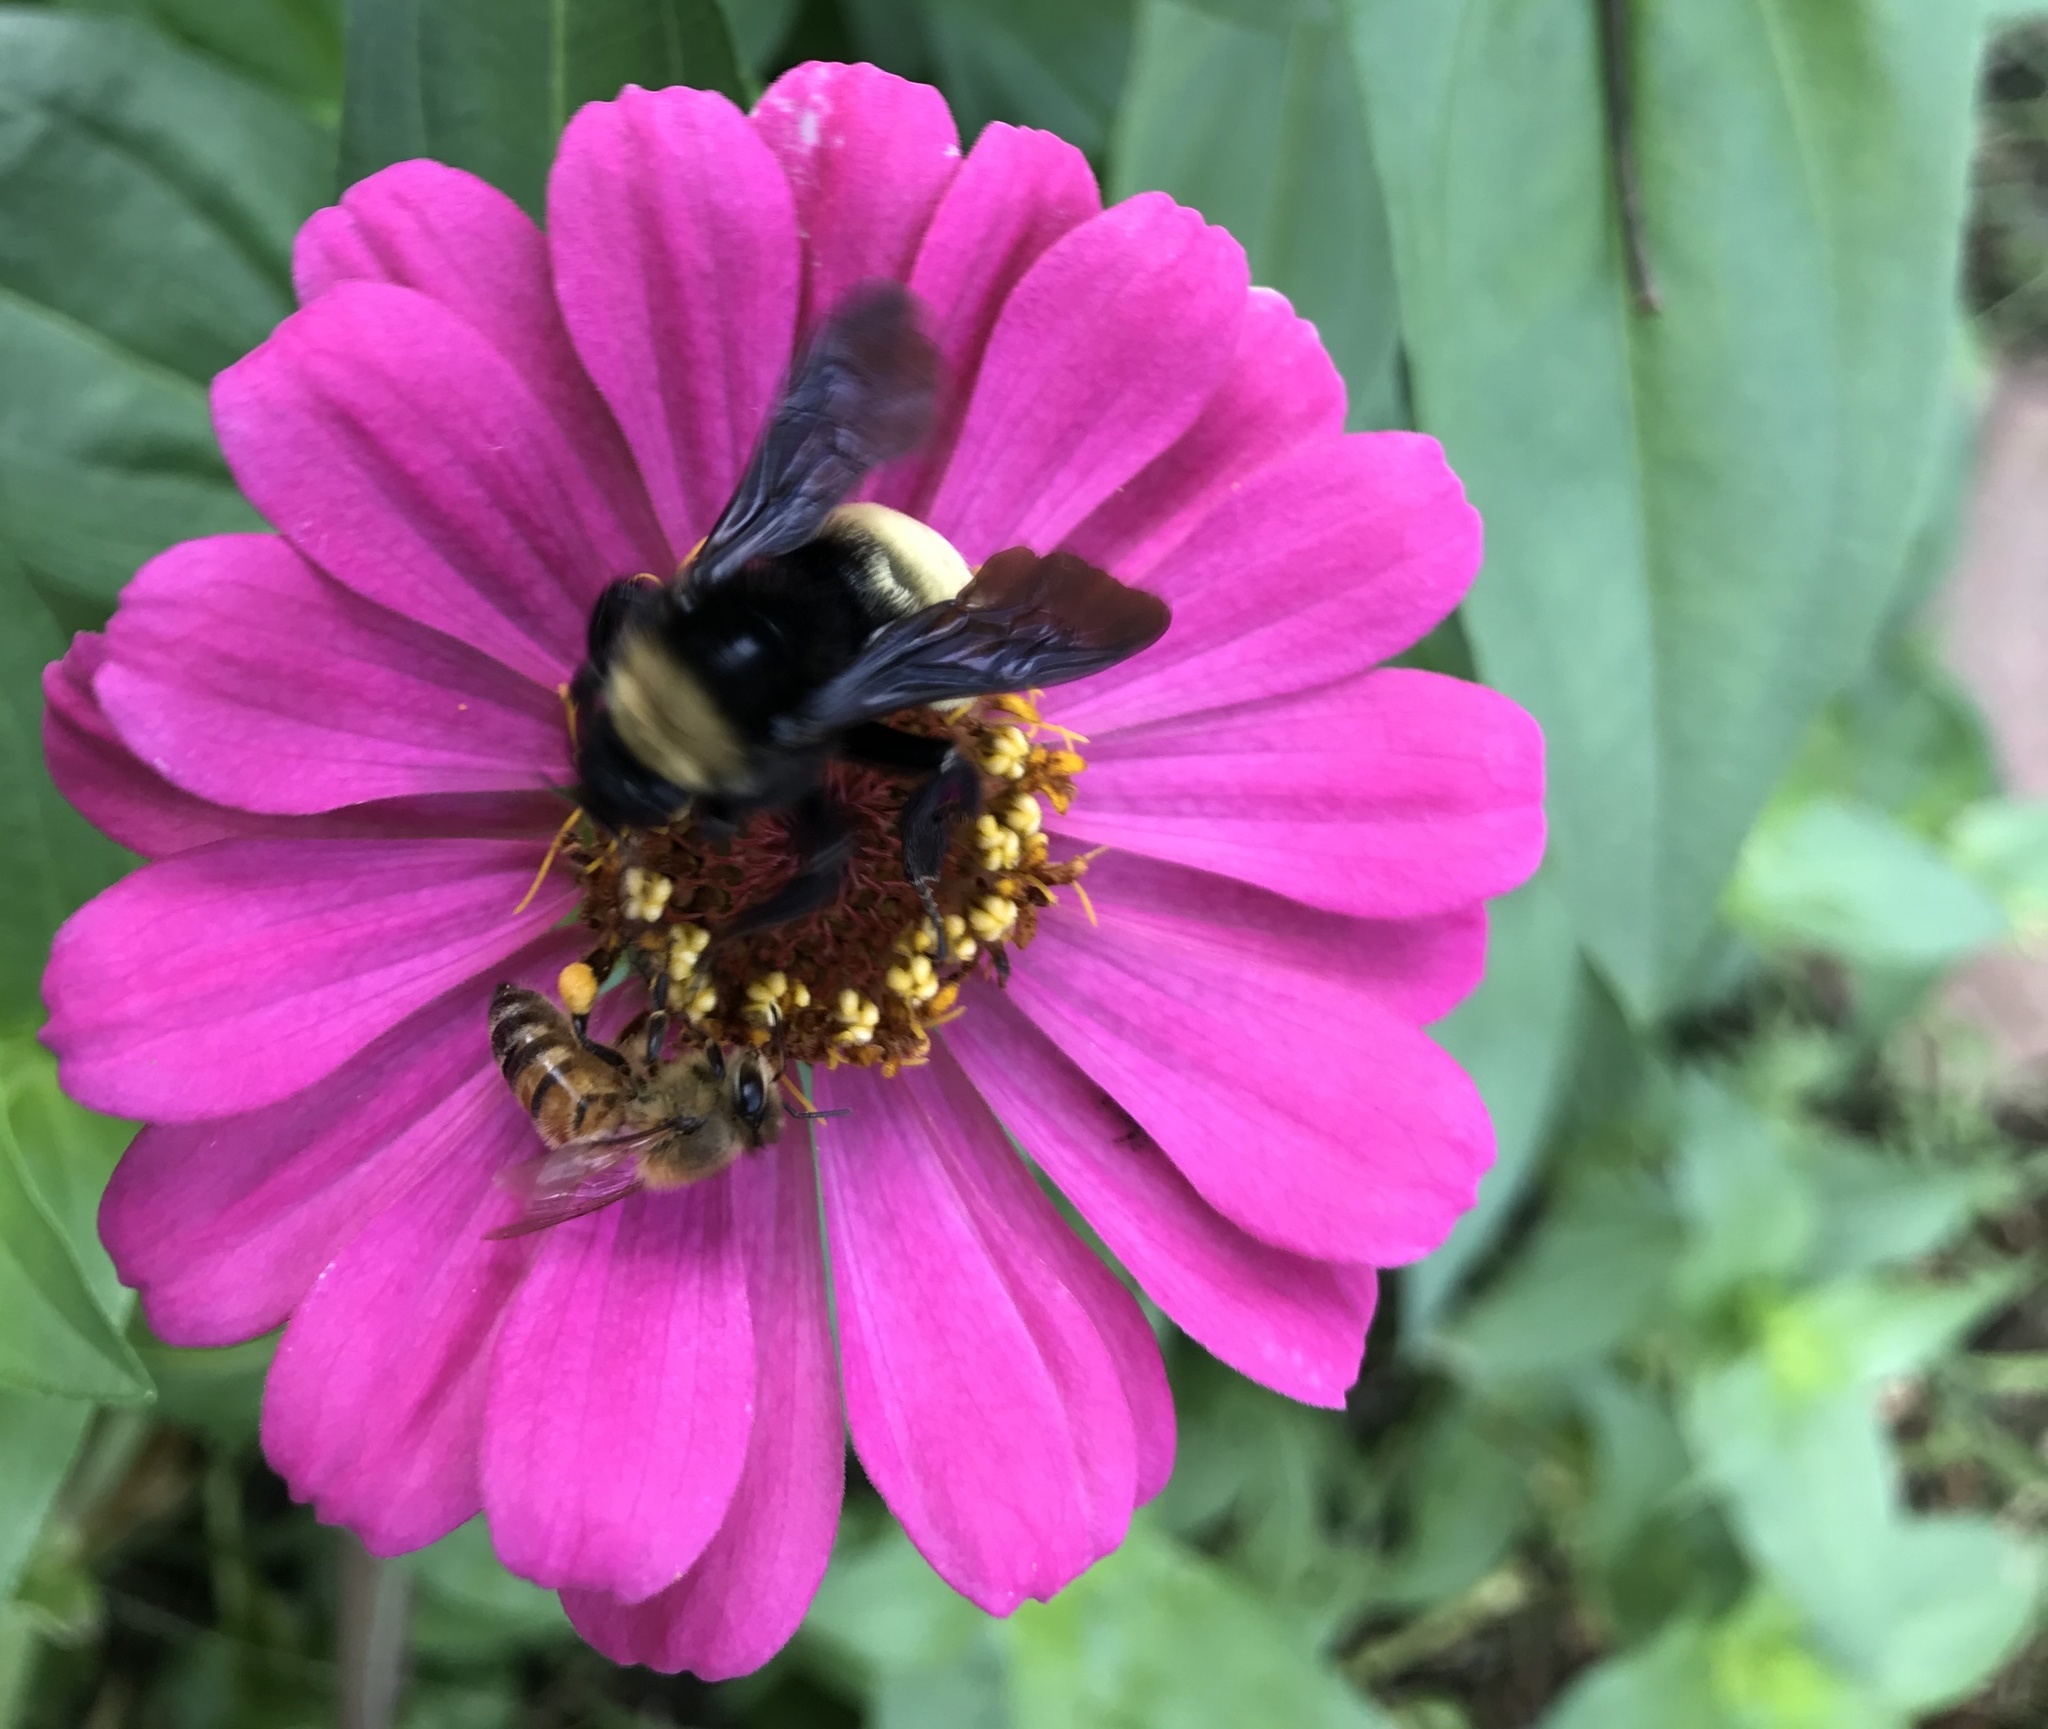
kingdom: Animalia
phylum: Arthropoda
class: Insecta
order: Hymenoptera
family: Apidae
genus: Bombus
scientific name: Bombus pensylvanicus
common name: Bumble bee
